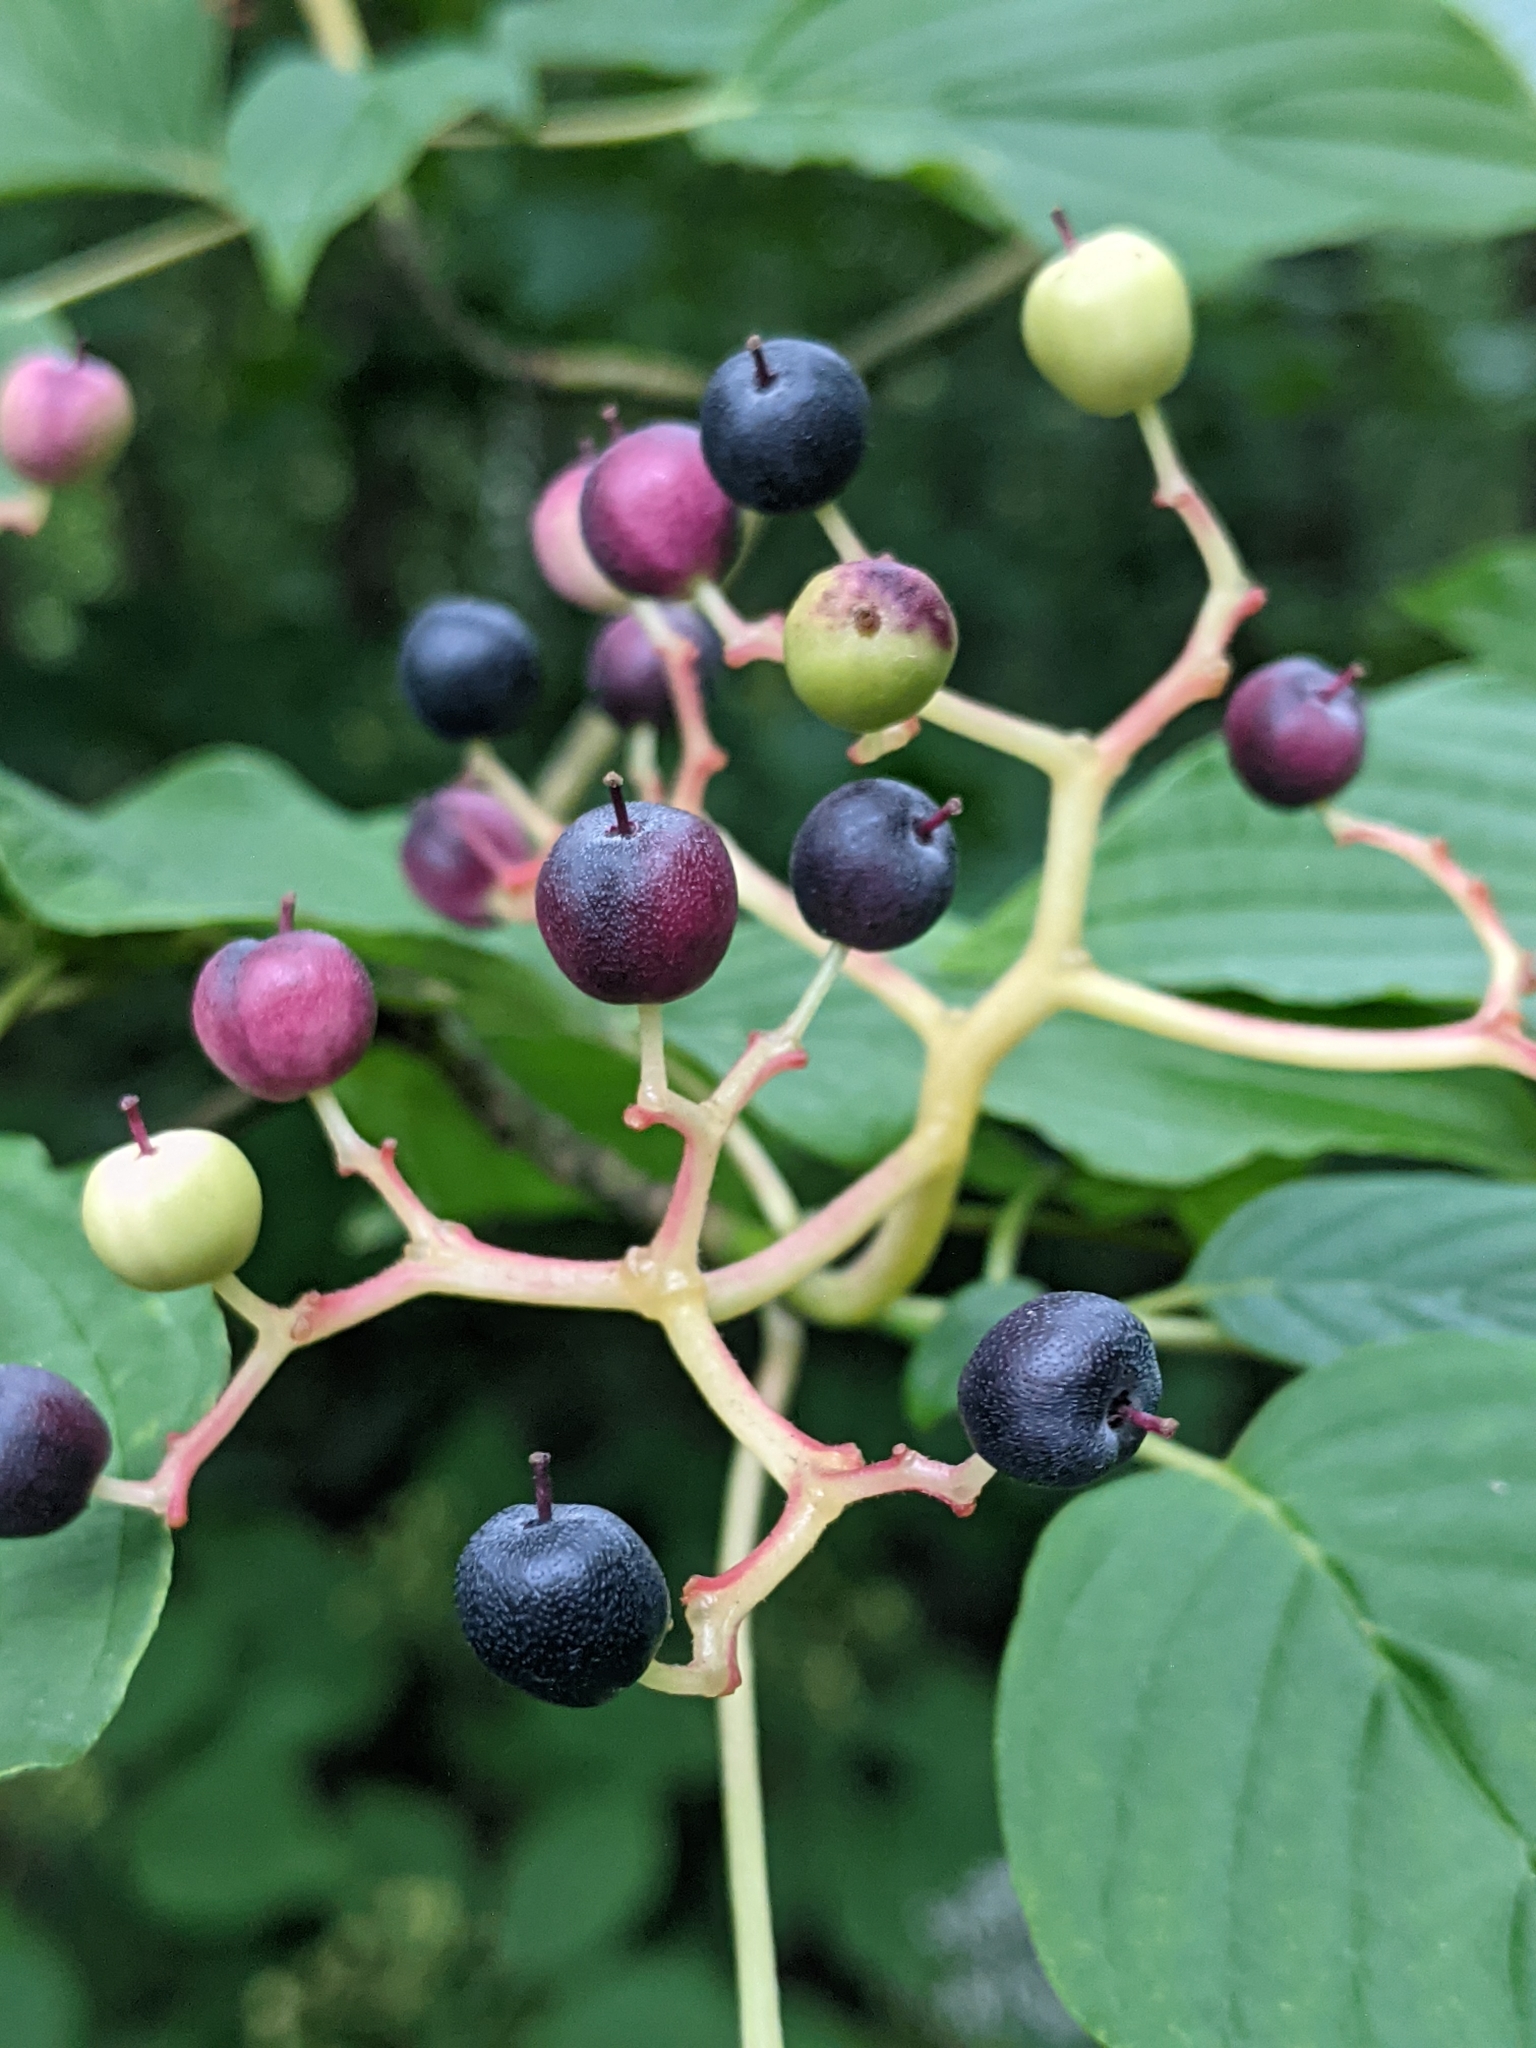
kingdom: Plantae
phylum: Tracheophyta
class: Magnoliopsida
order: Cornales
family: Cornaceae
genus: Cornus
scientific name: Cornus alternifolia
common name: Pagoda dogwood
